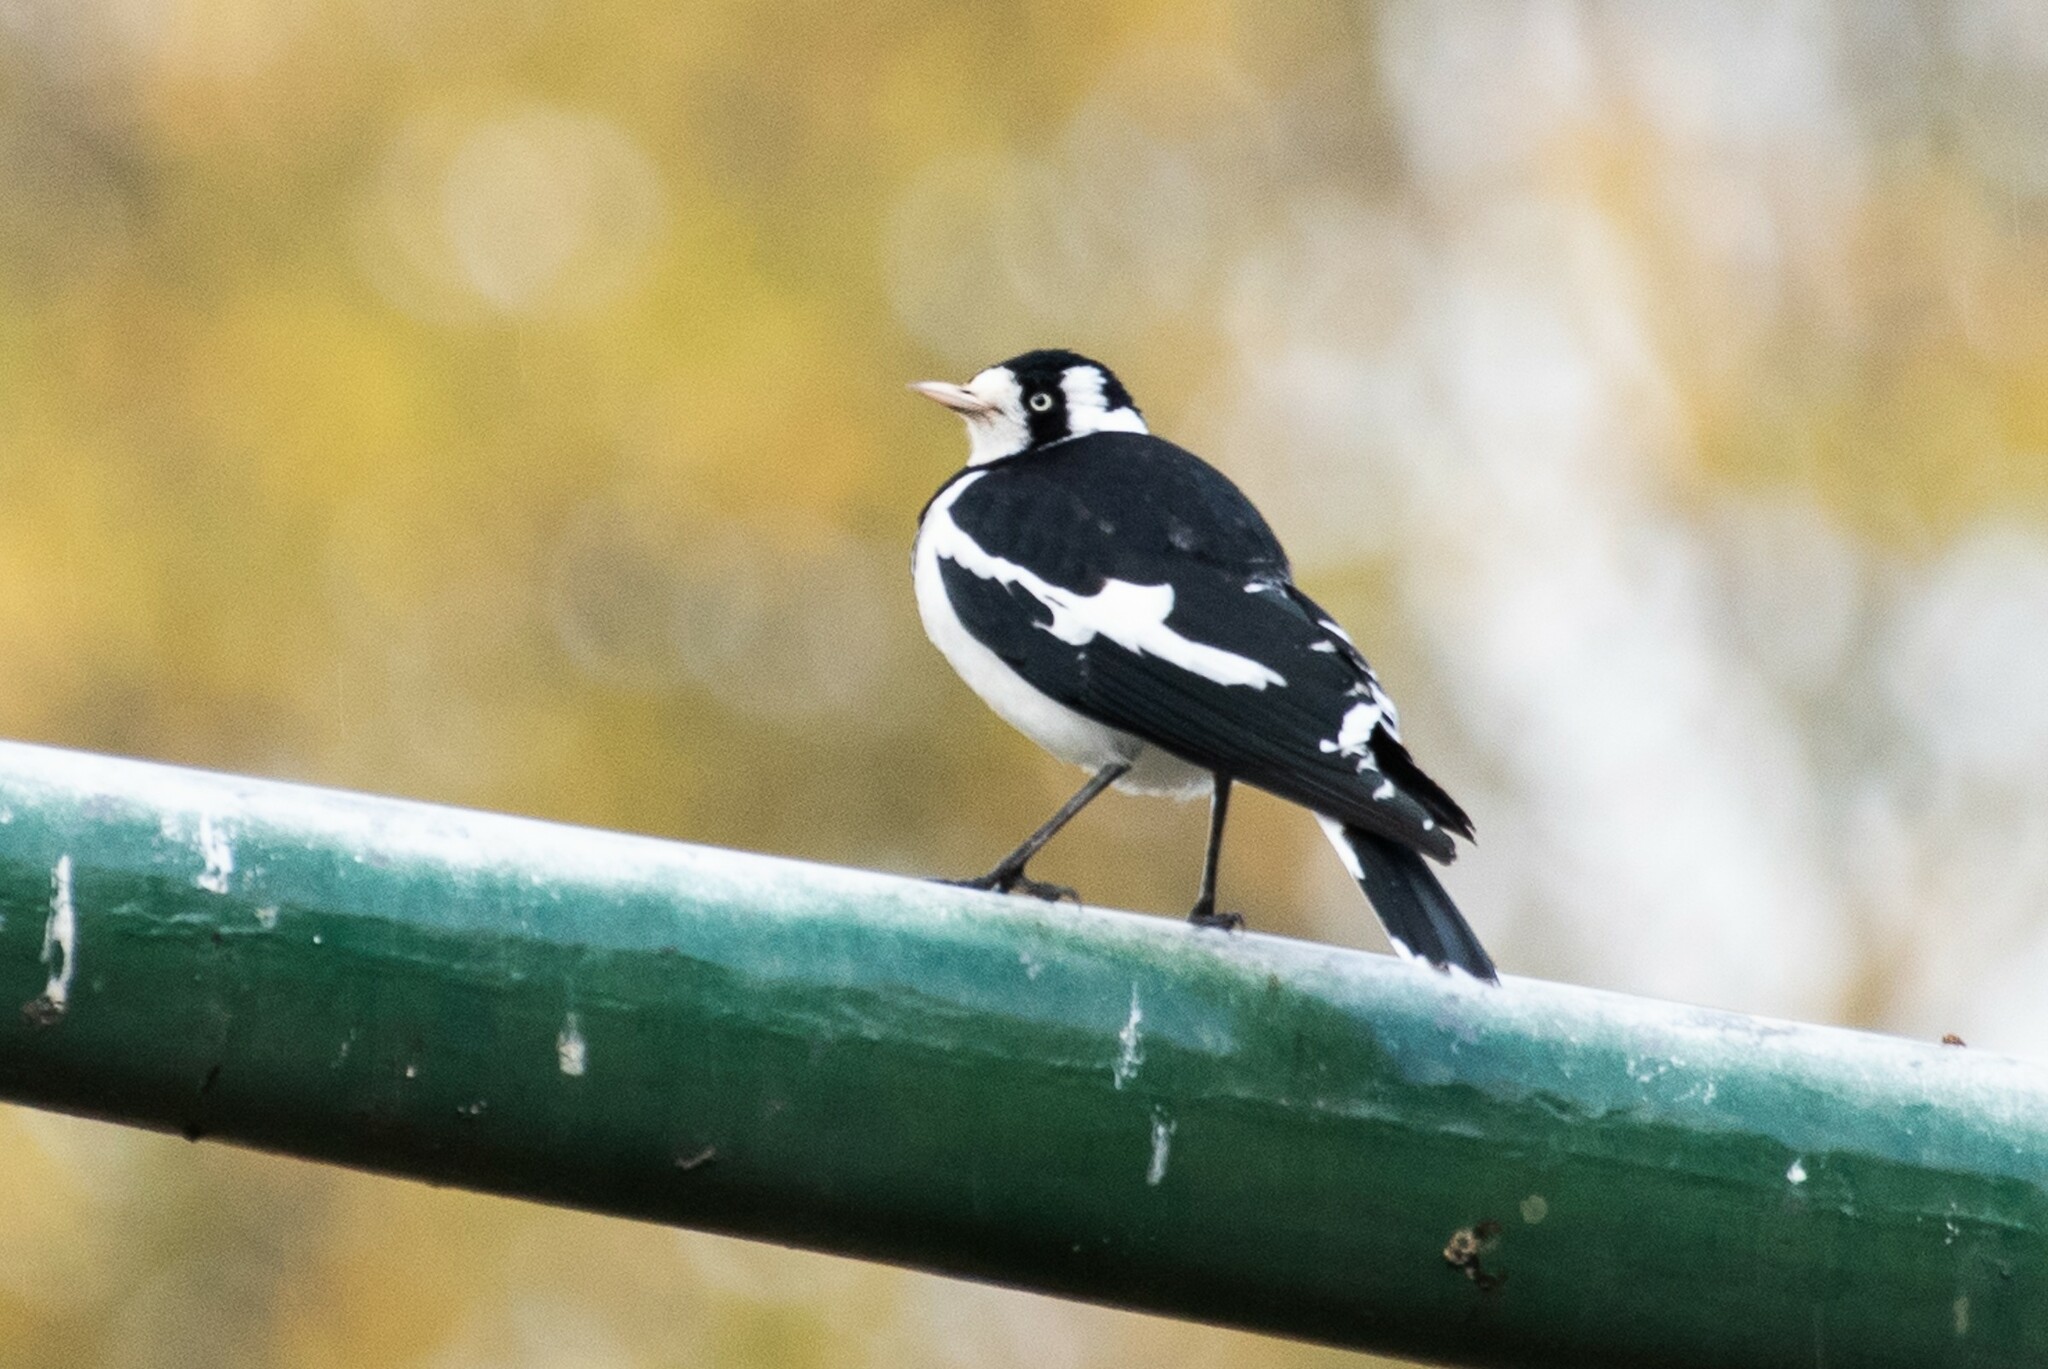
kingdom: Animalia
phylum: Chordata
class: Aves
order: Passeriformes
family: Monarchidae
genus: Grallina
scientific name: Grallina cyanoleuca
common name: Magpie-lark
